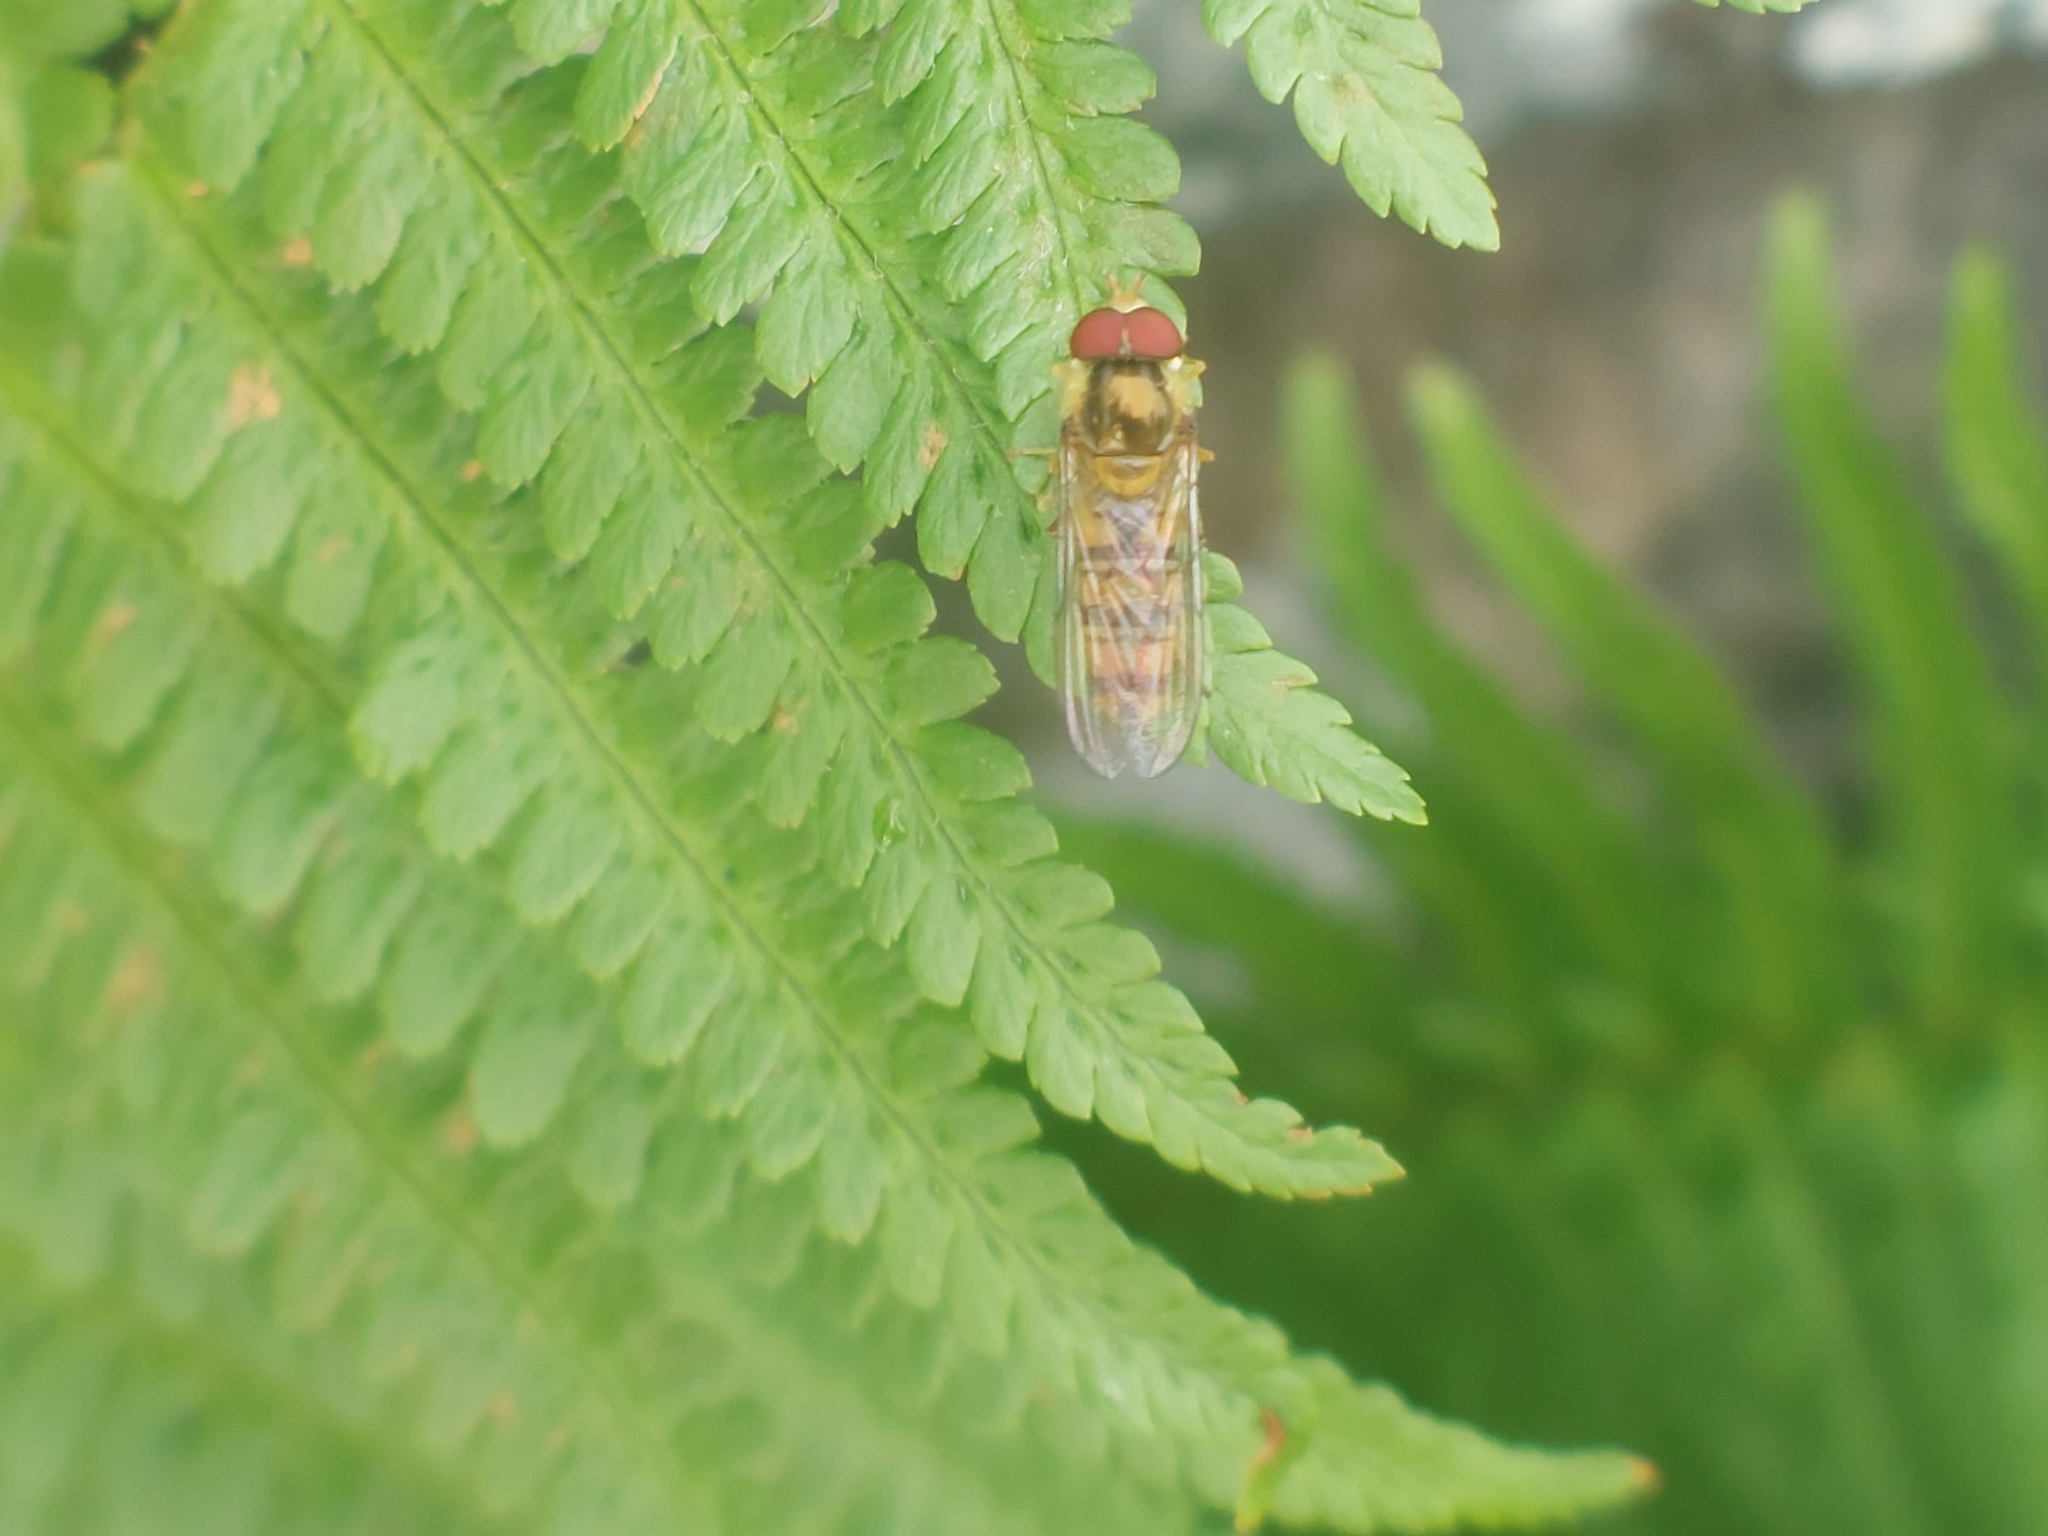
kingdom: Animalia
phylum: Arthropoda
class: Insecta
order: Diptera
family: Syrphidae
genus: Episyrphus
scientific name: Episyrphus balteatus
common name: Marmalade hoverfly
